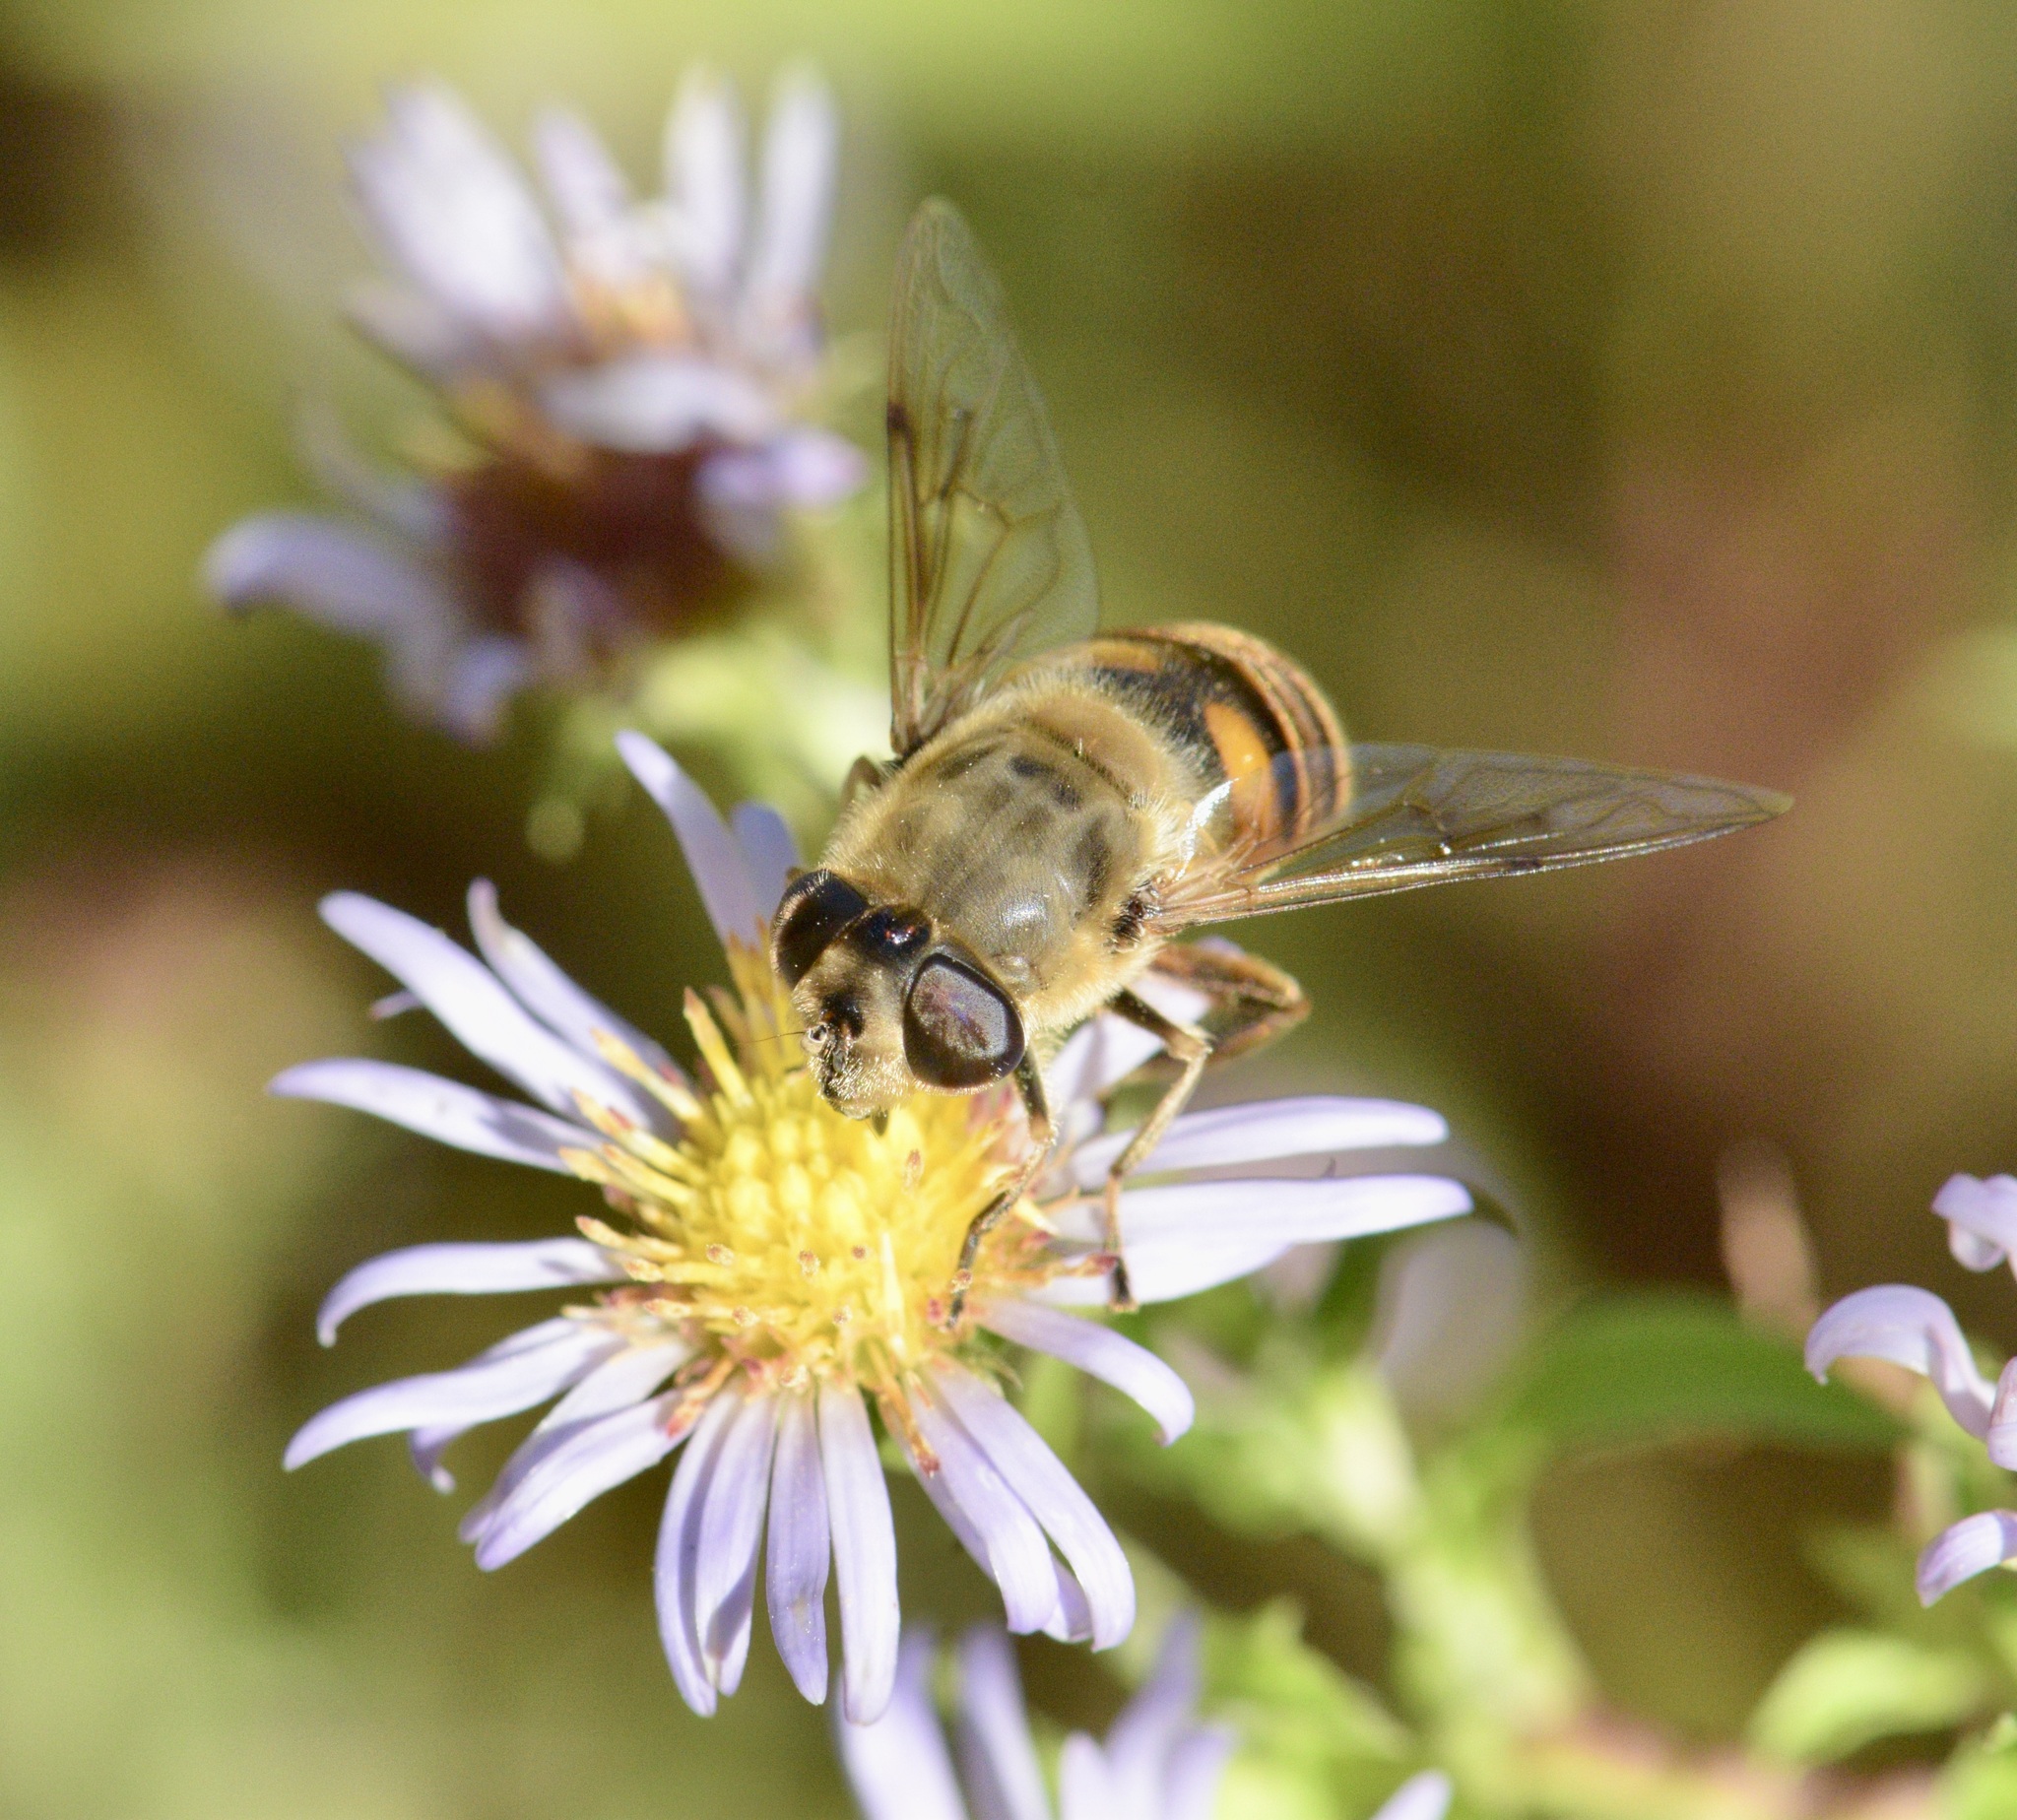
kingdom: Animalia
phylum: Arthropoda
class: Insecta
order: Diptera
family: Syrphidae
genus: Eristalis
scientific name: Eristalis tenax
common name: Drone fly
